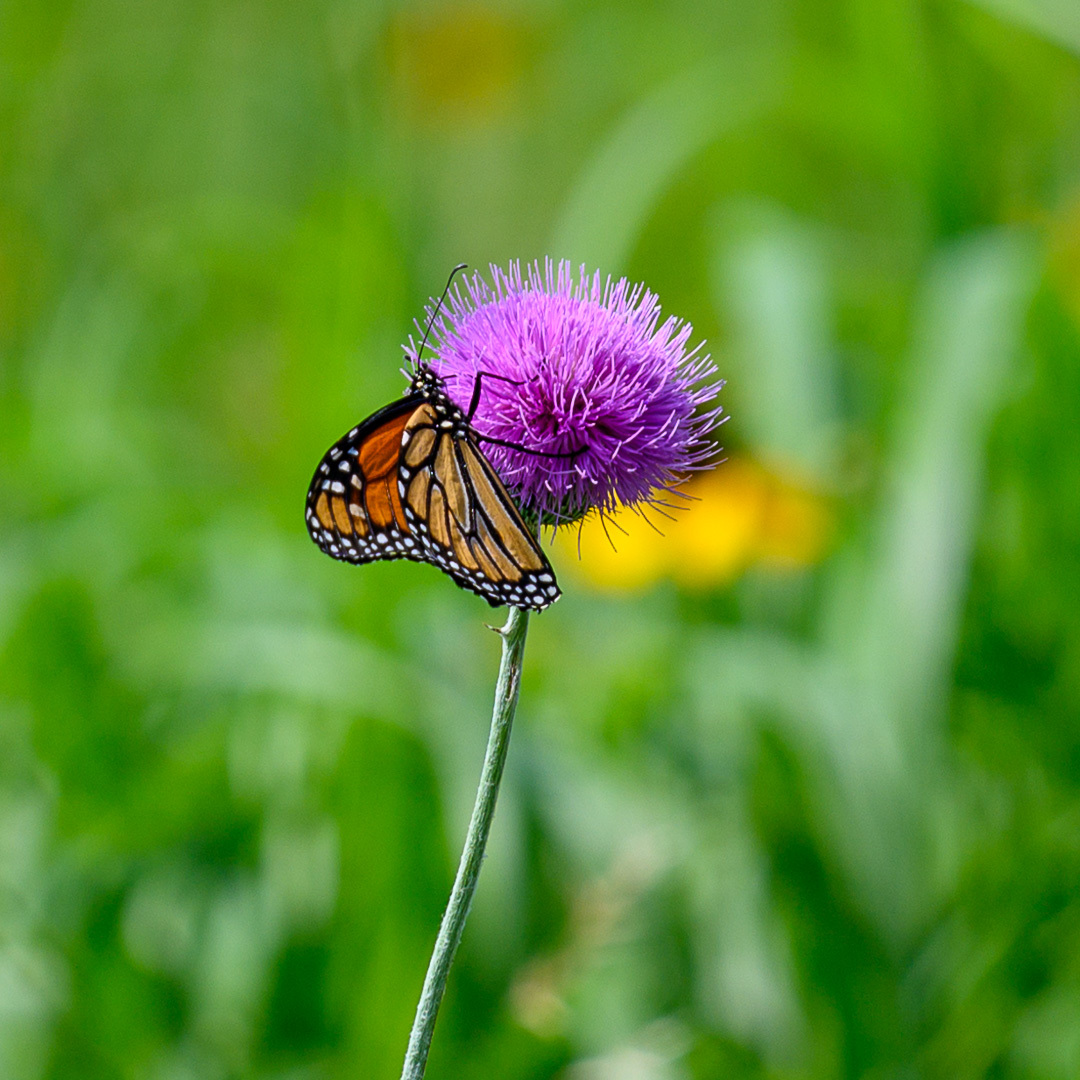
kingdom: Animalia
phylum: Arthropoda
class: Insecta
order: Lepidoptera
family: Nymphalidae
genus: Danaus
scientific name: Danaus plexippus
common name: Monarch
